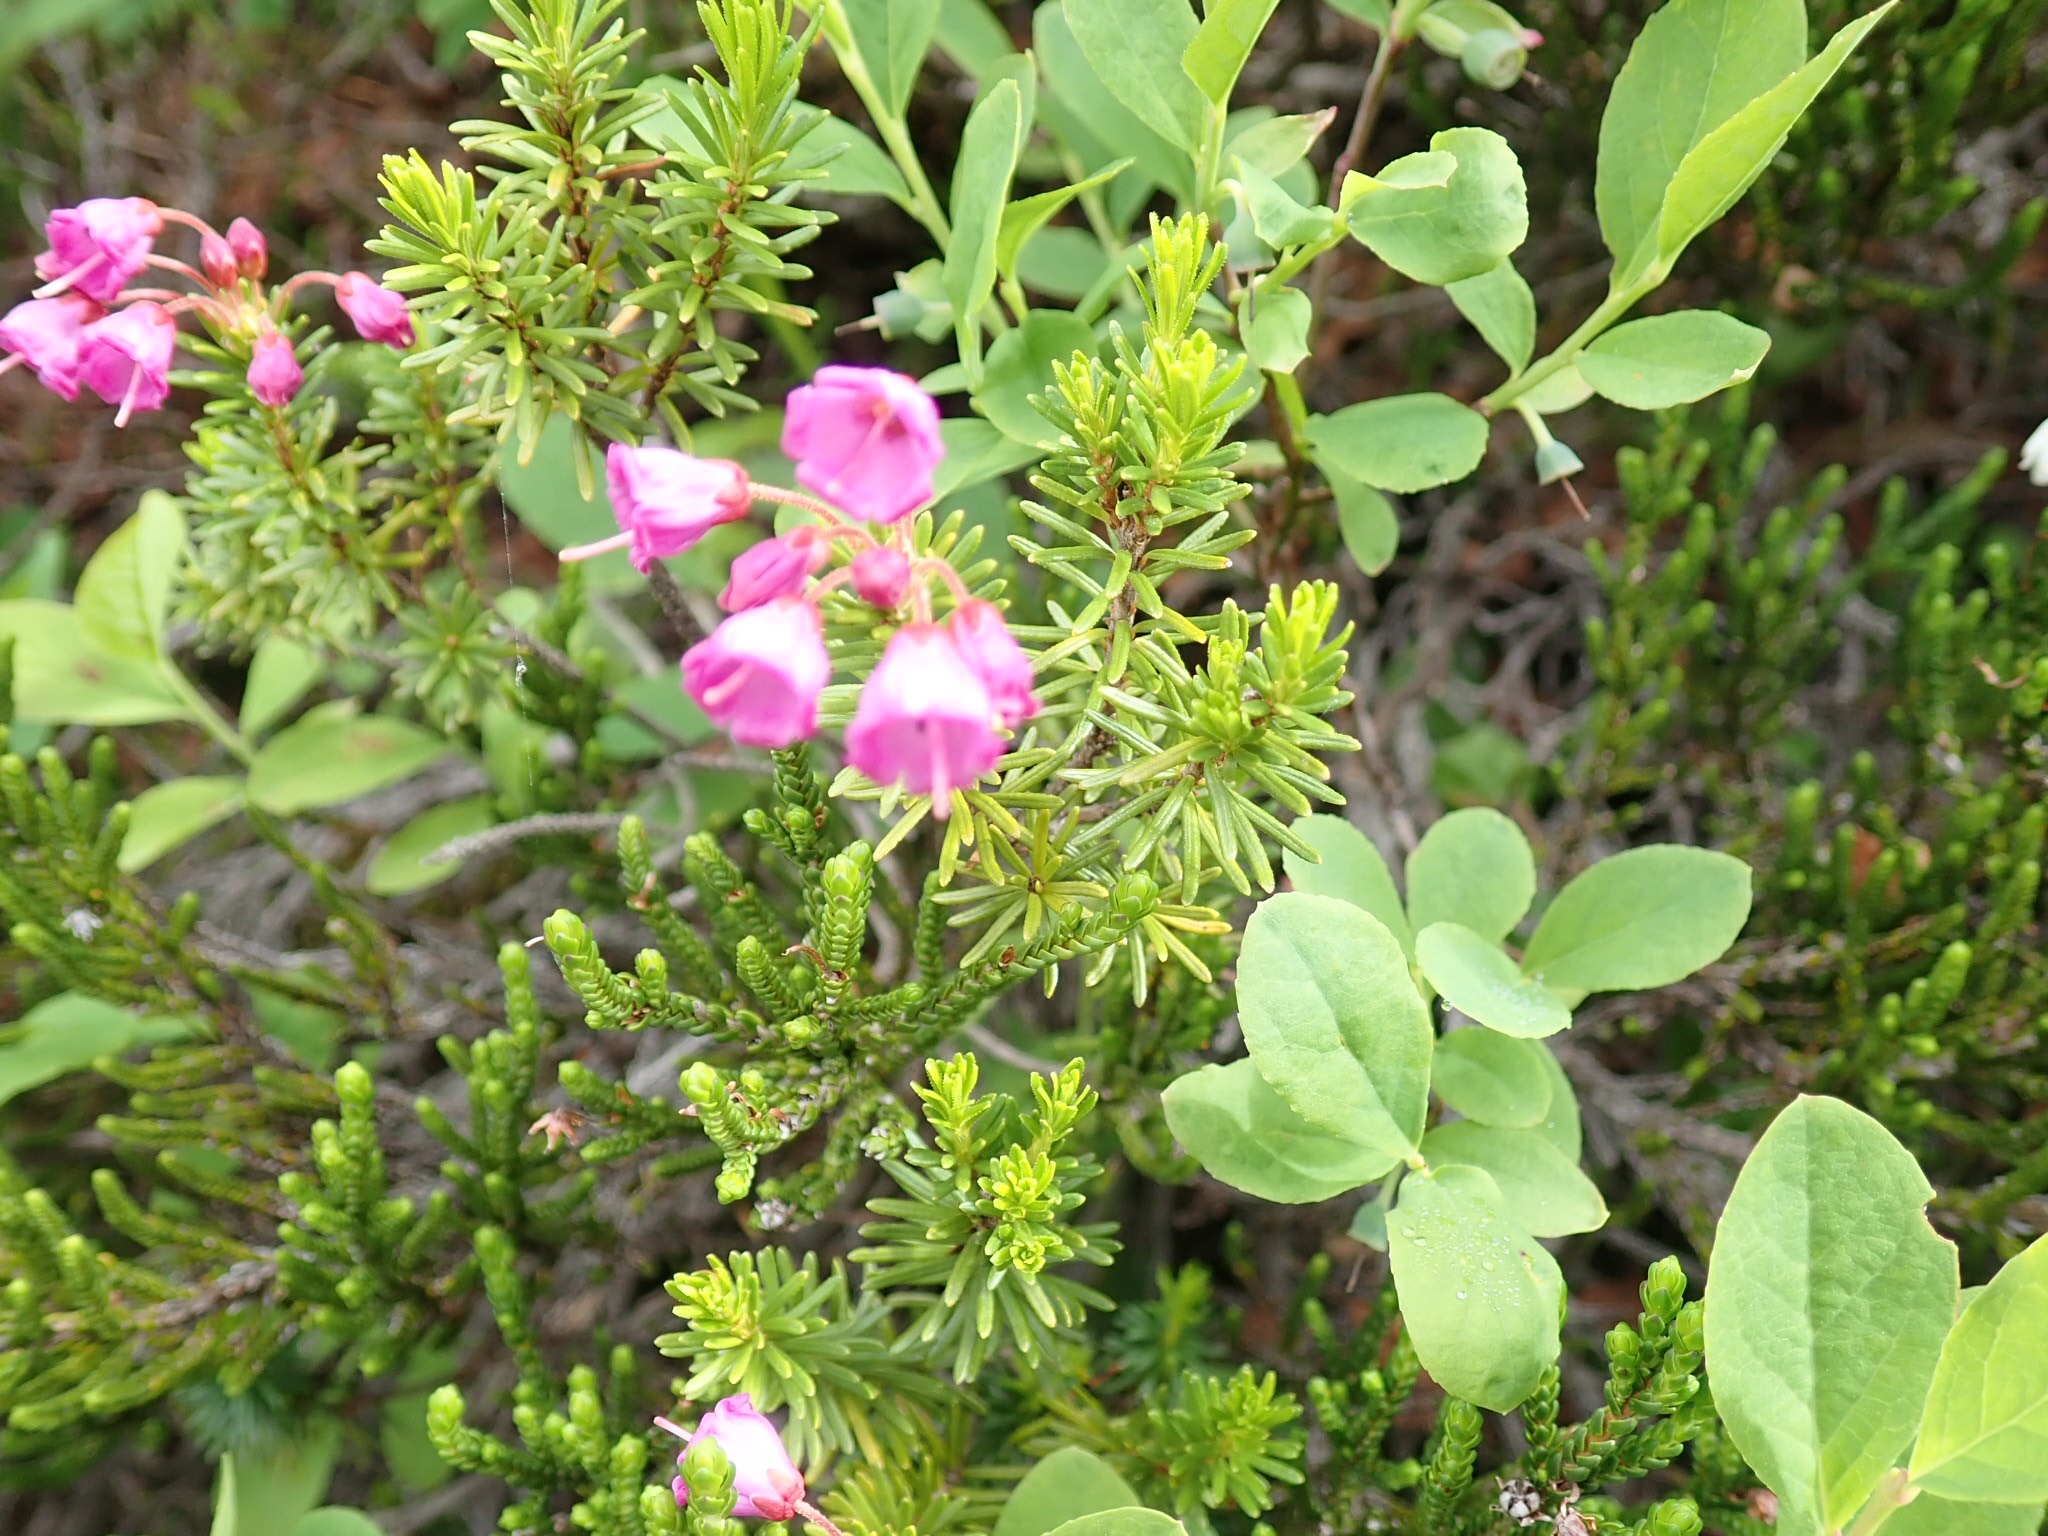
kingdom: Plantae
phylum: Tracheophyta
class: Magnoliopsida
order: Ericales
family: Ericaceae
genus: Phyllodoce
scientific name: Phyllodoce empetriformis
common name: Pink mountain heather
